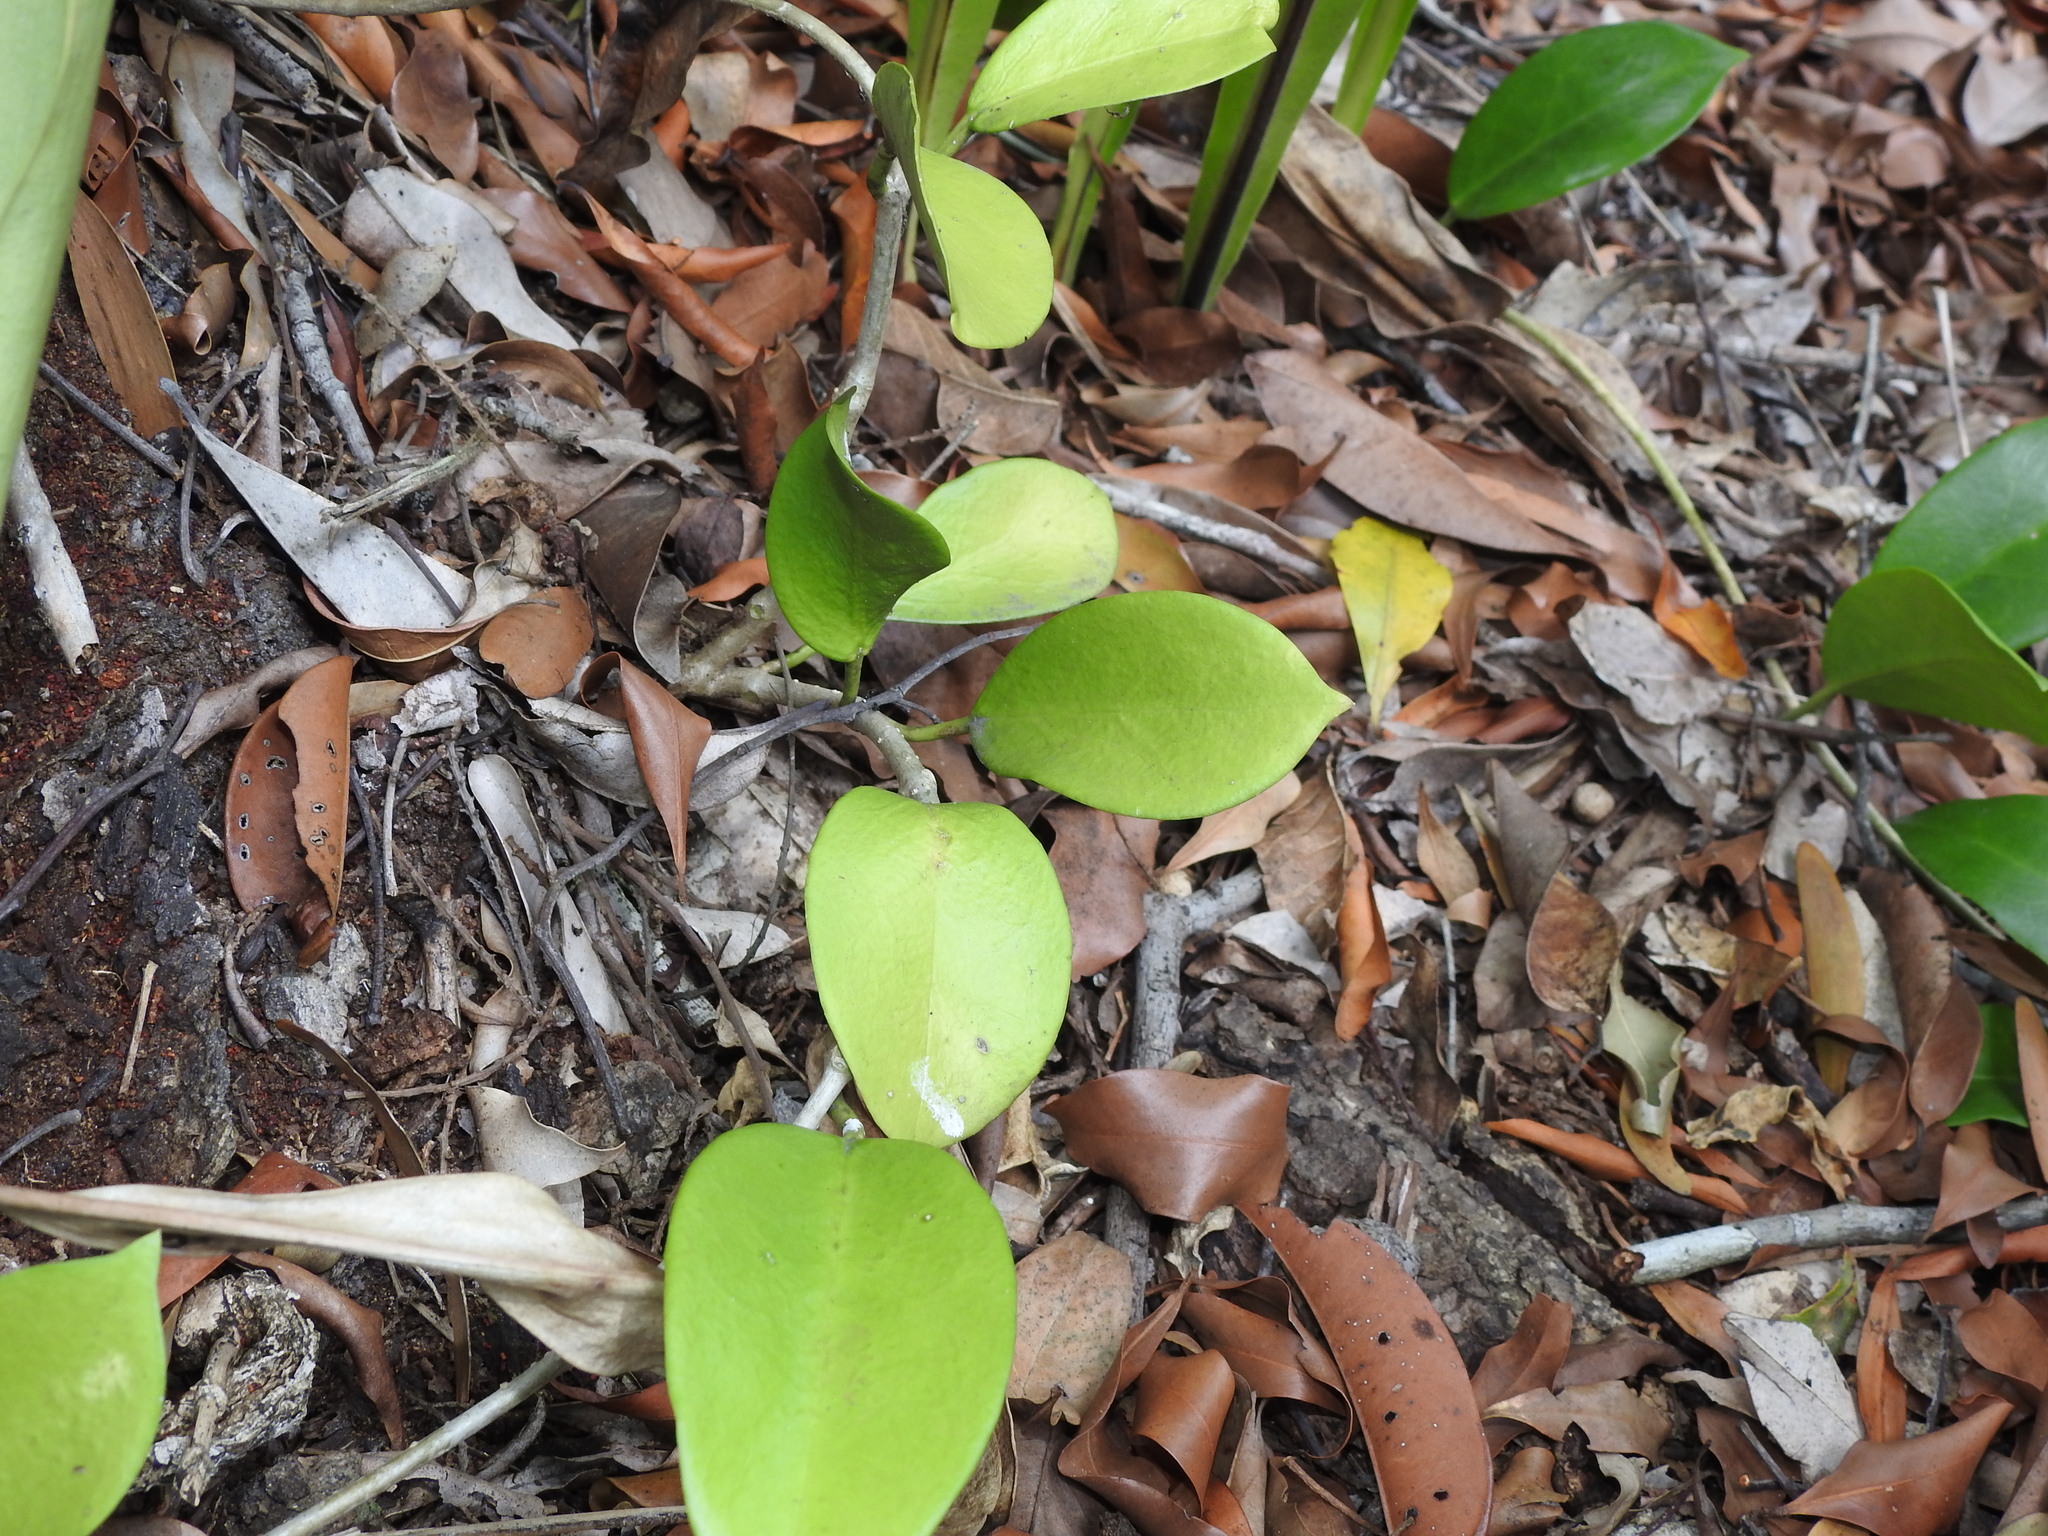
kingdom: Plantae
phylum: Tracheophyta
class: Magnoliopsida
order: Gentianales
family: Apocynaceae
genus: Hoya
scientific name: Hoya australis
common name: Wax flower
